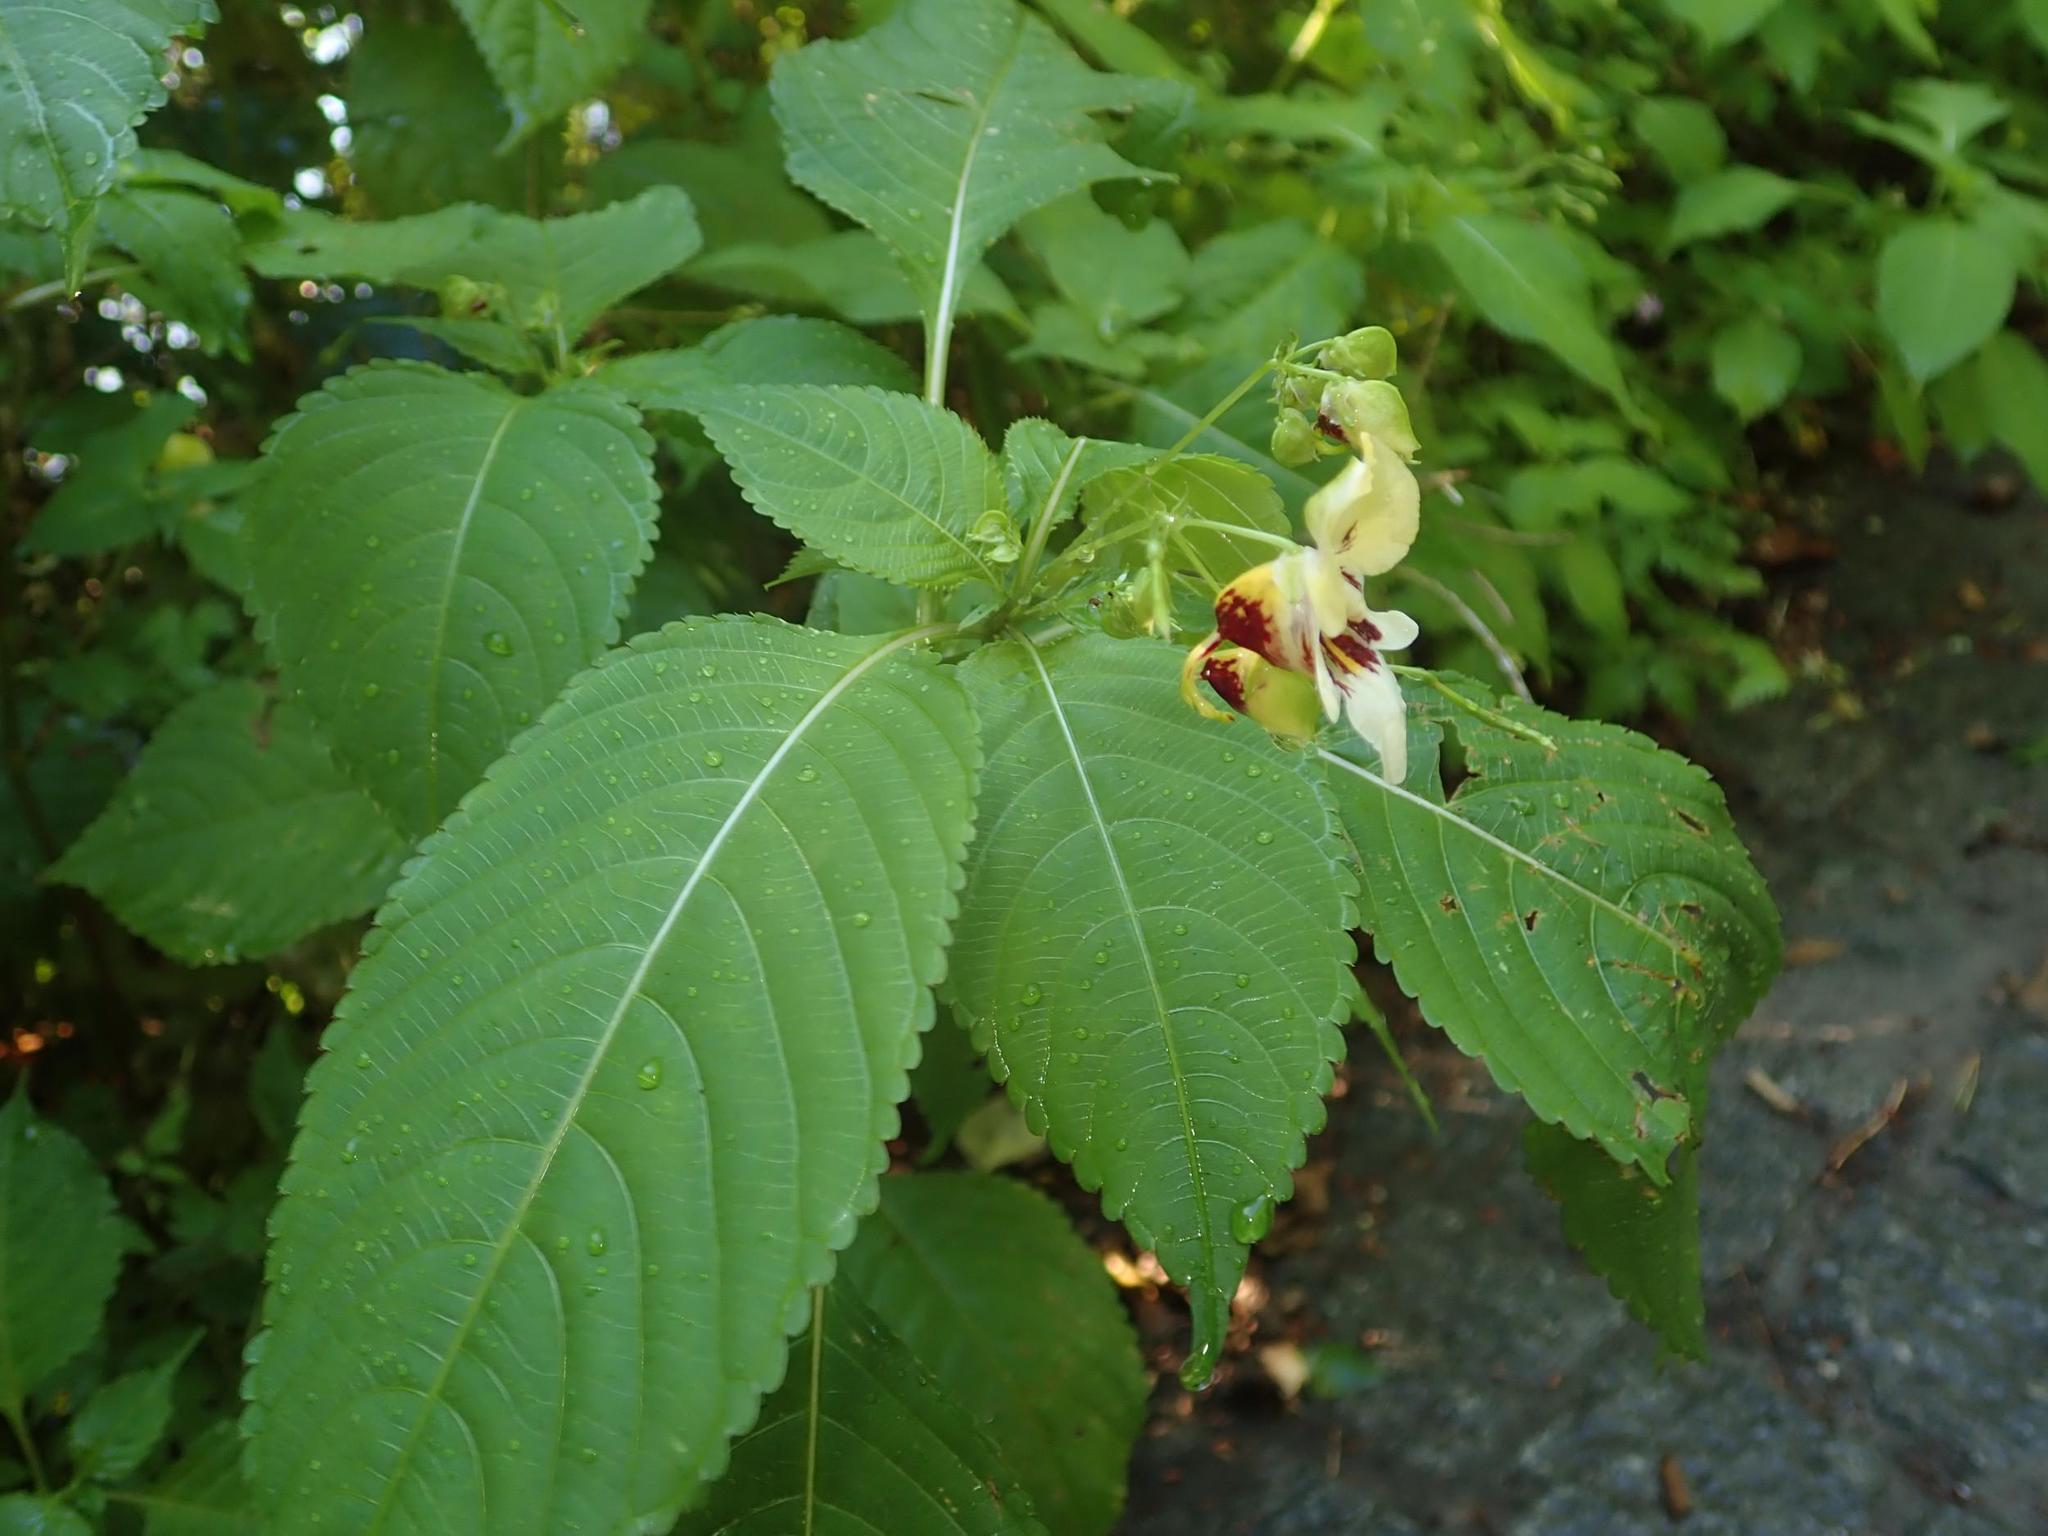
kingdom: Plantae
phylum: Tracheophyta
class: Magnoliopsida
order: Ericales
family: Balsaminaceae
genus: Impatiens
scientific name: Impatiens edgeworthii
